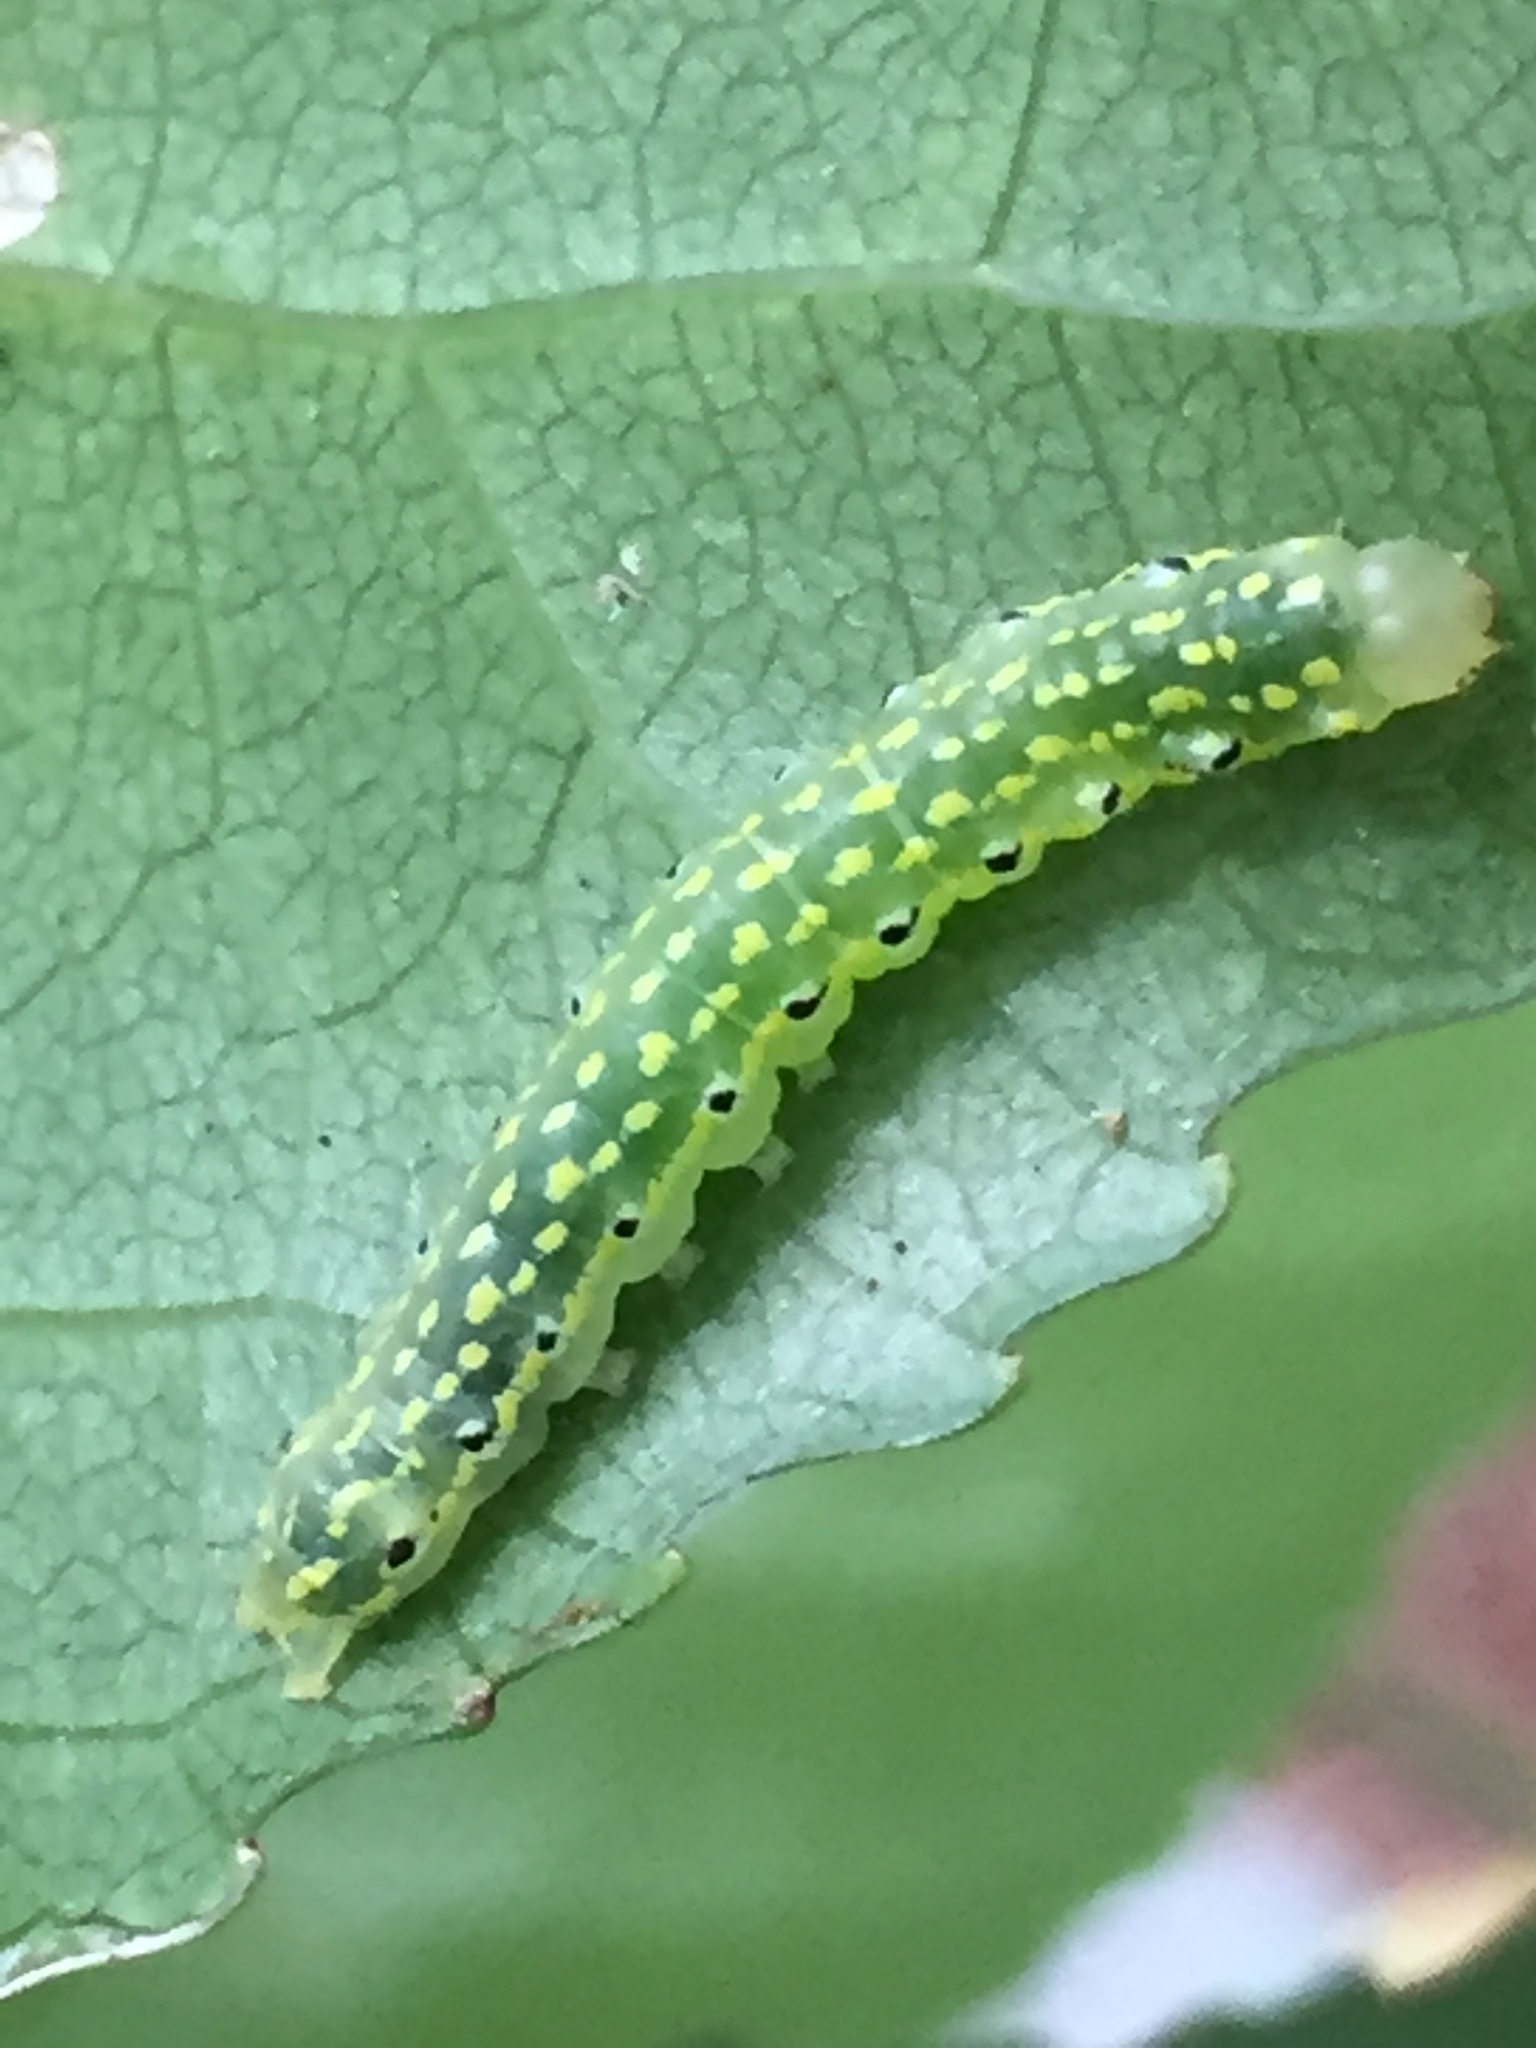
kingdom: Animalia
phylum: Arthropoda
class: Insecta
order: Lepidoptera
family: Noctuidae
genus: Austramathes
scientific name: Austramathes purpurea
